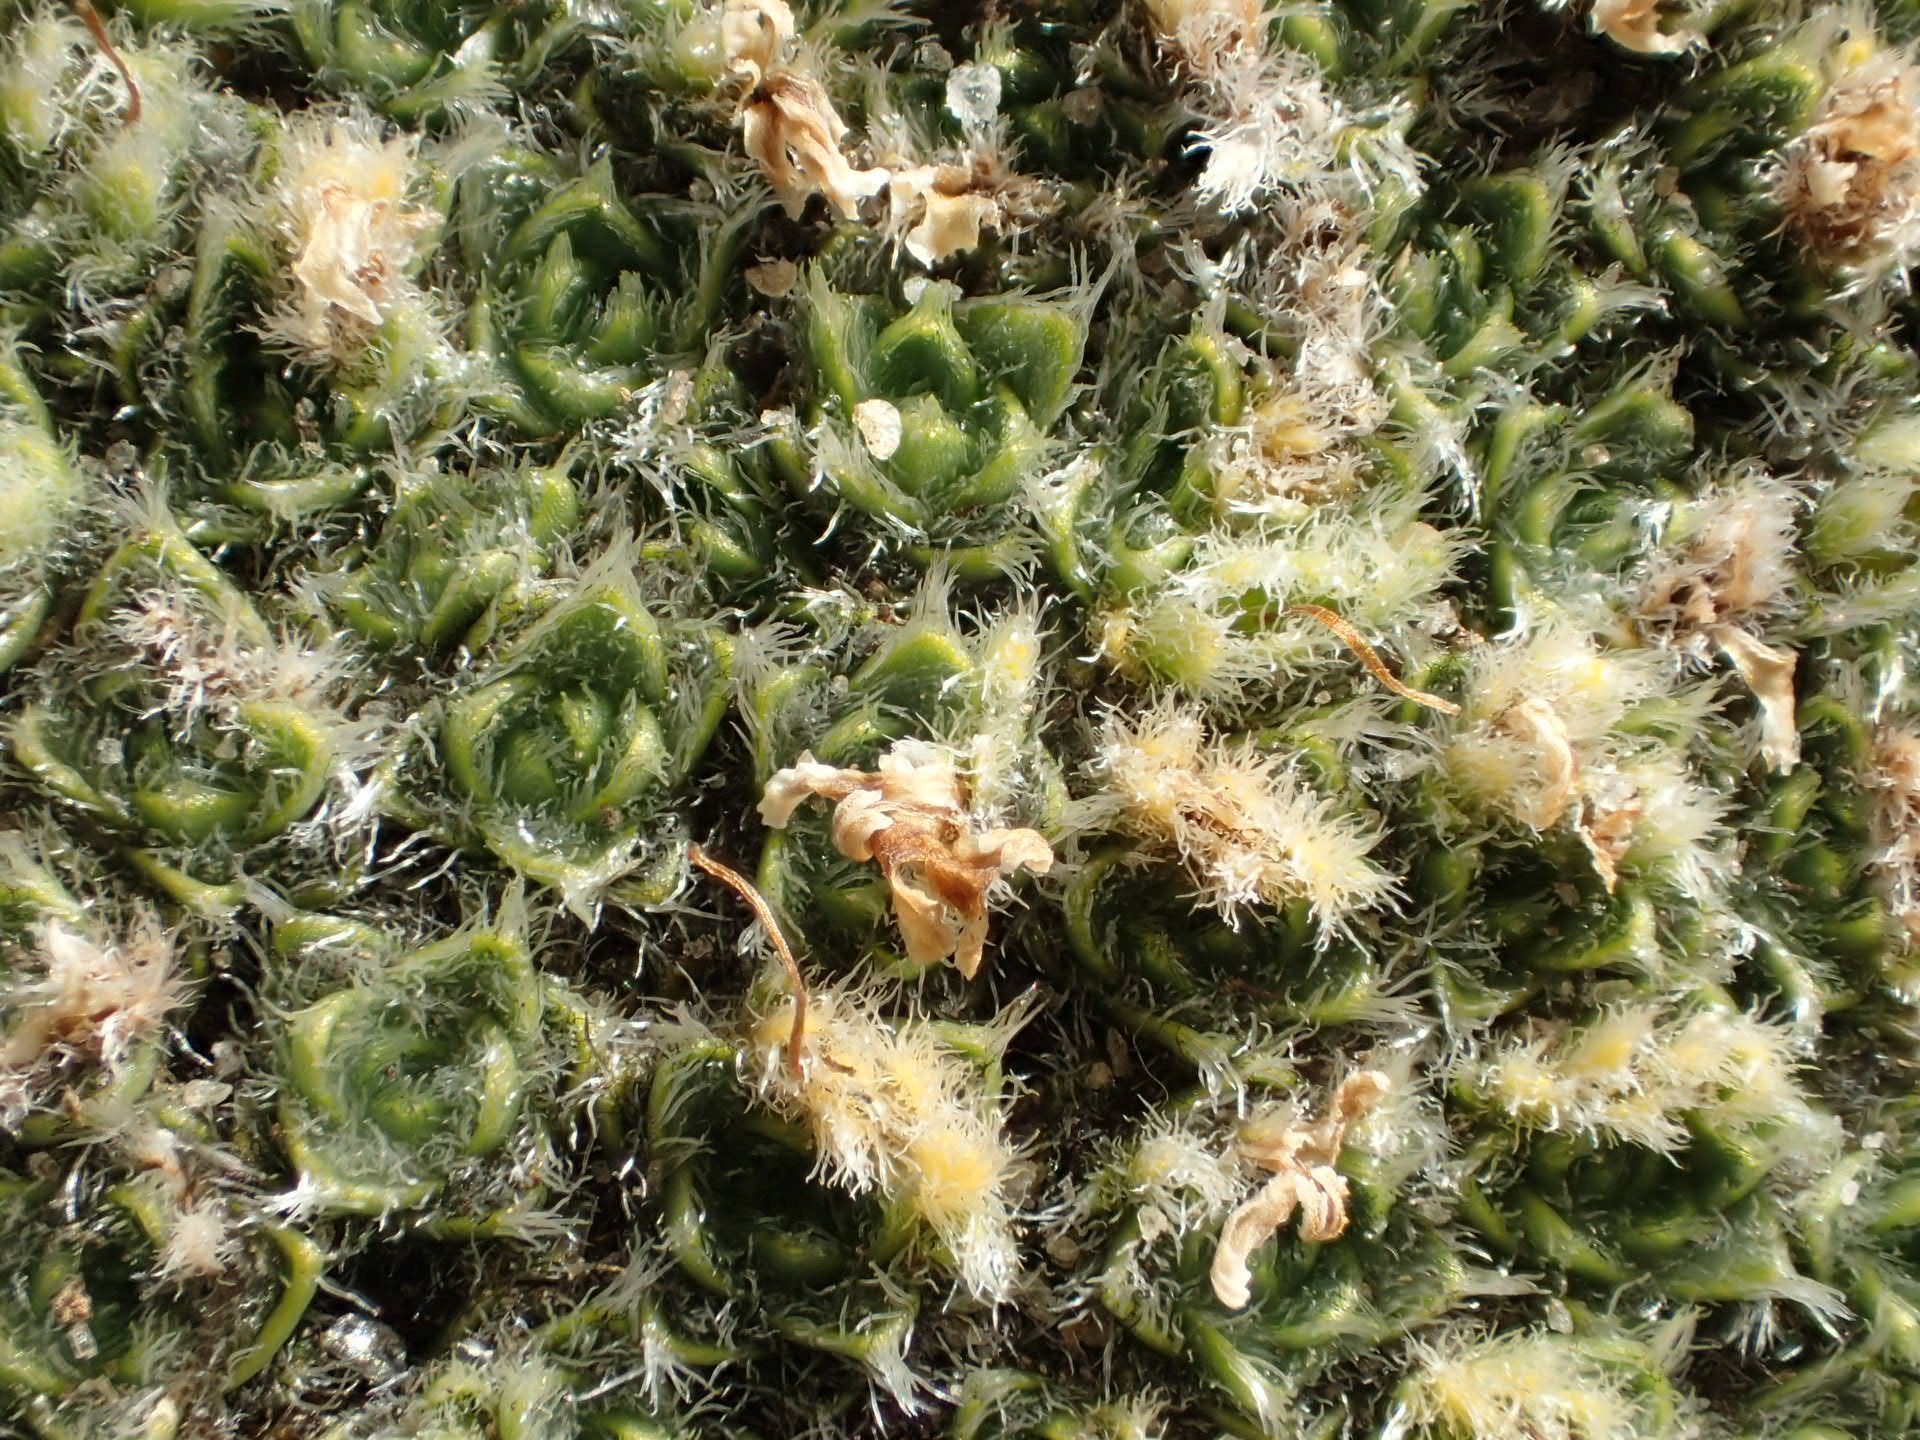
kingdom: Plantae
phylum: Tracheophyta
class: Magnoliopsida
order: Lamiales
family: Plantaginaceae
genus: Veronica
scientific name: Veronica thomsonii
